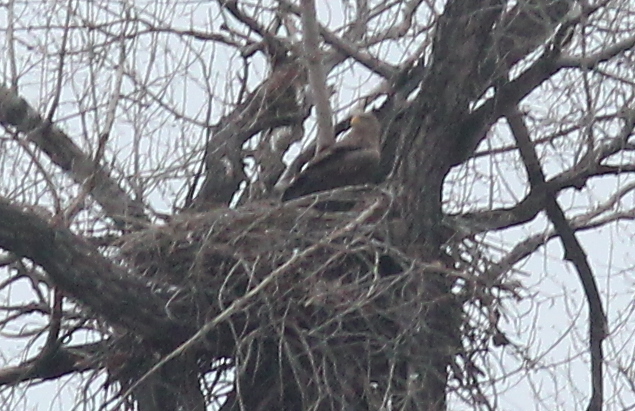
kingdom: Animalia
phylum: Chordata
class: Aves
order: Accipitriformes
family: Accipitridae
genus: Haliaeetus
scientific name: Haliaeetus albicilla
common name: White-tailed eagle
